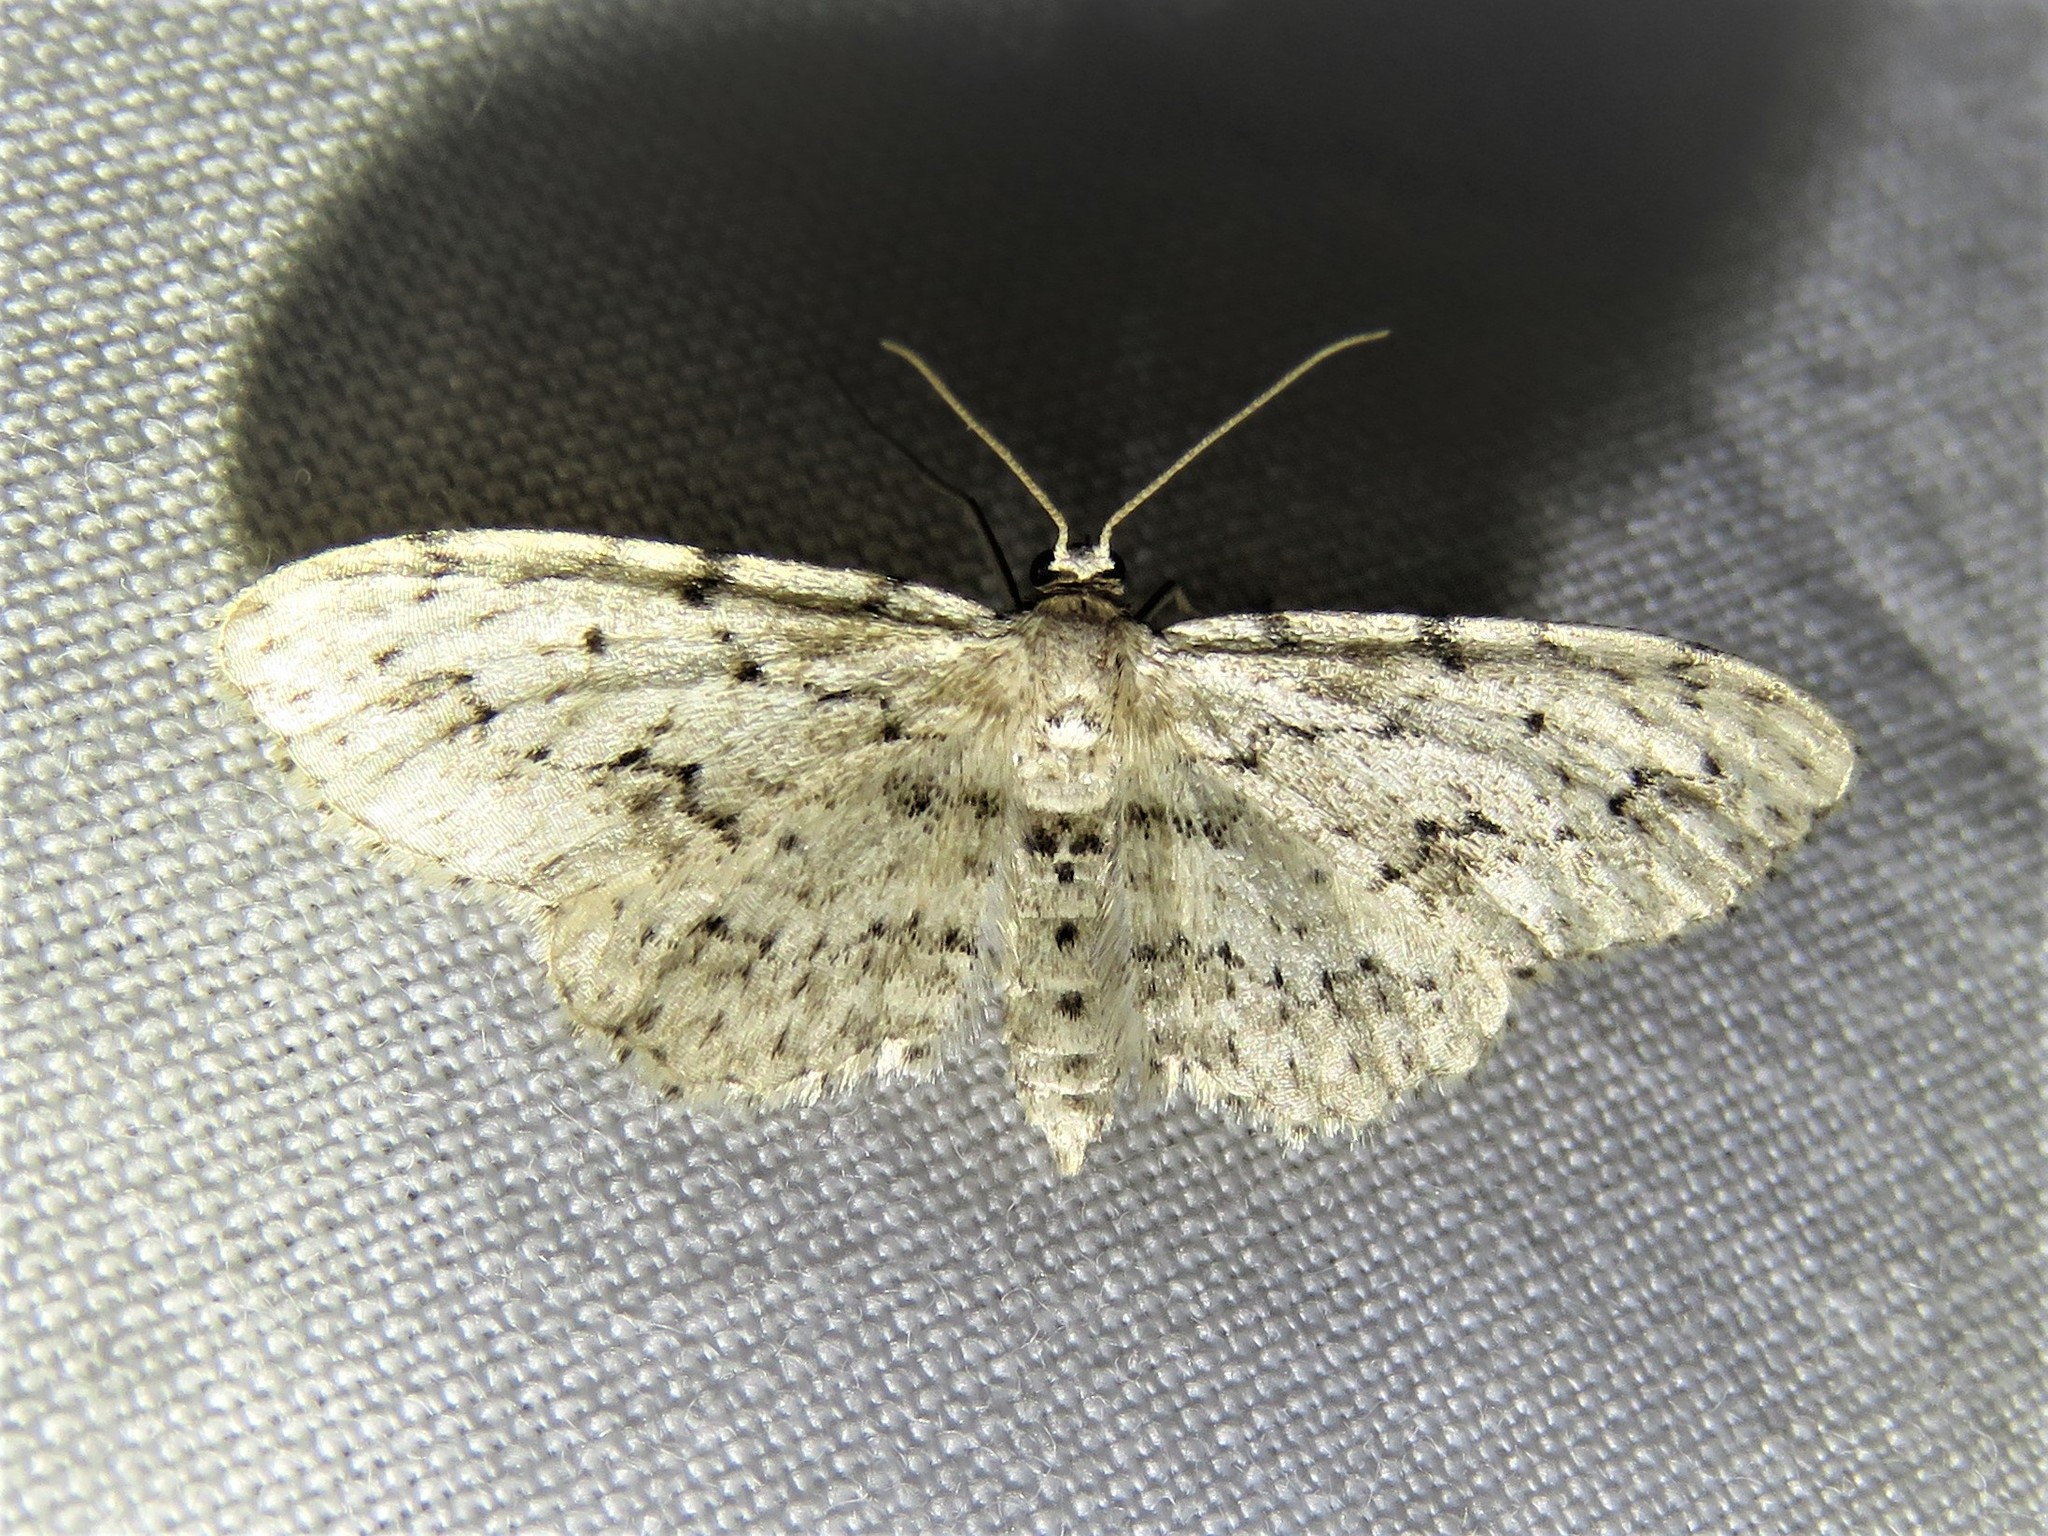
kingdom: Animalia
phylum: Arthropoda
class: Insecta
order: Lepidoptera
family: Geometridae
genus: Pimaphera
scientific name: Pimaphera sparsaria
